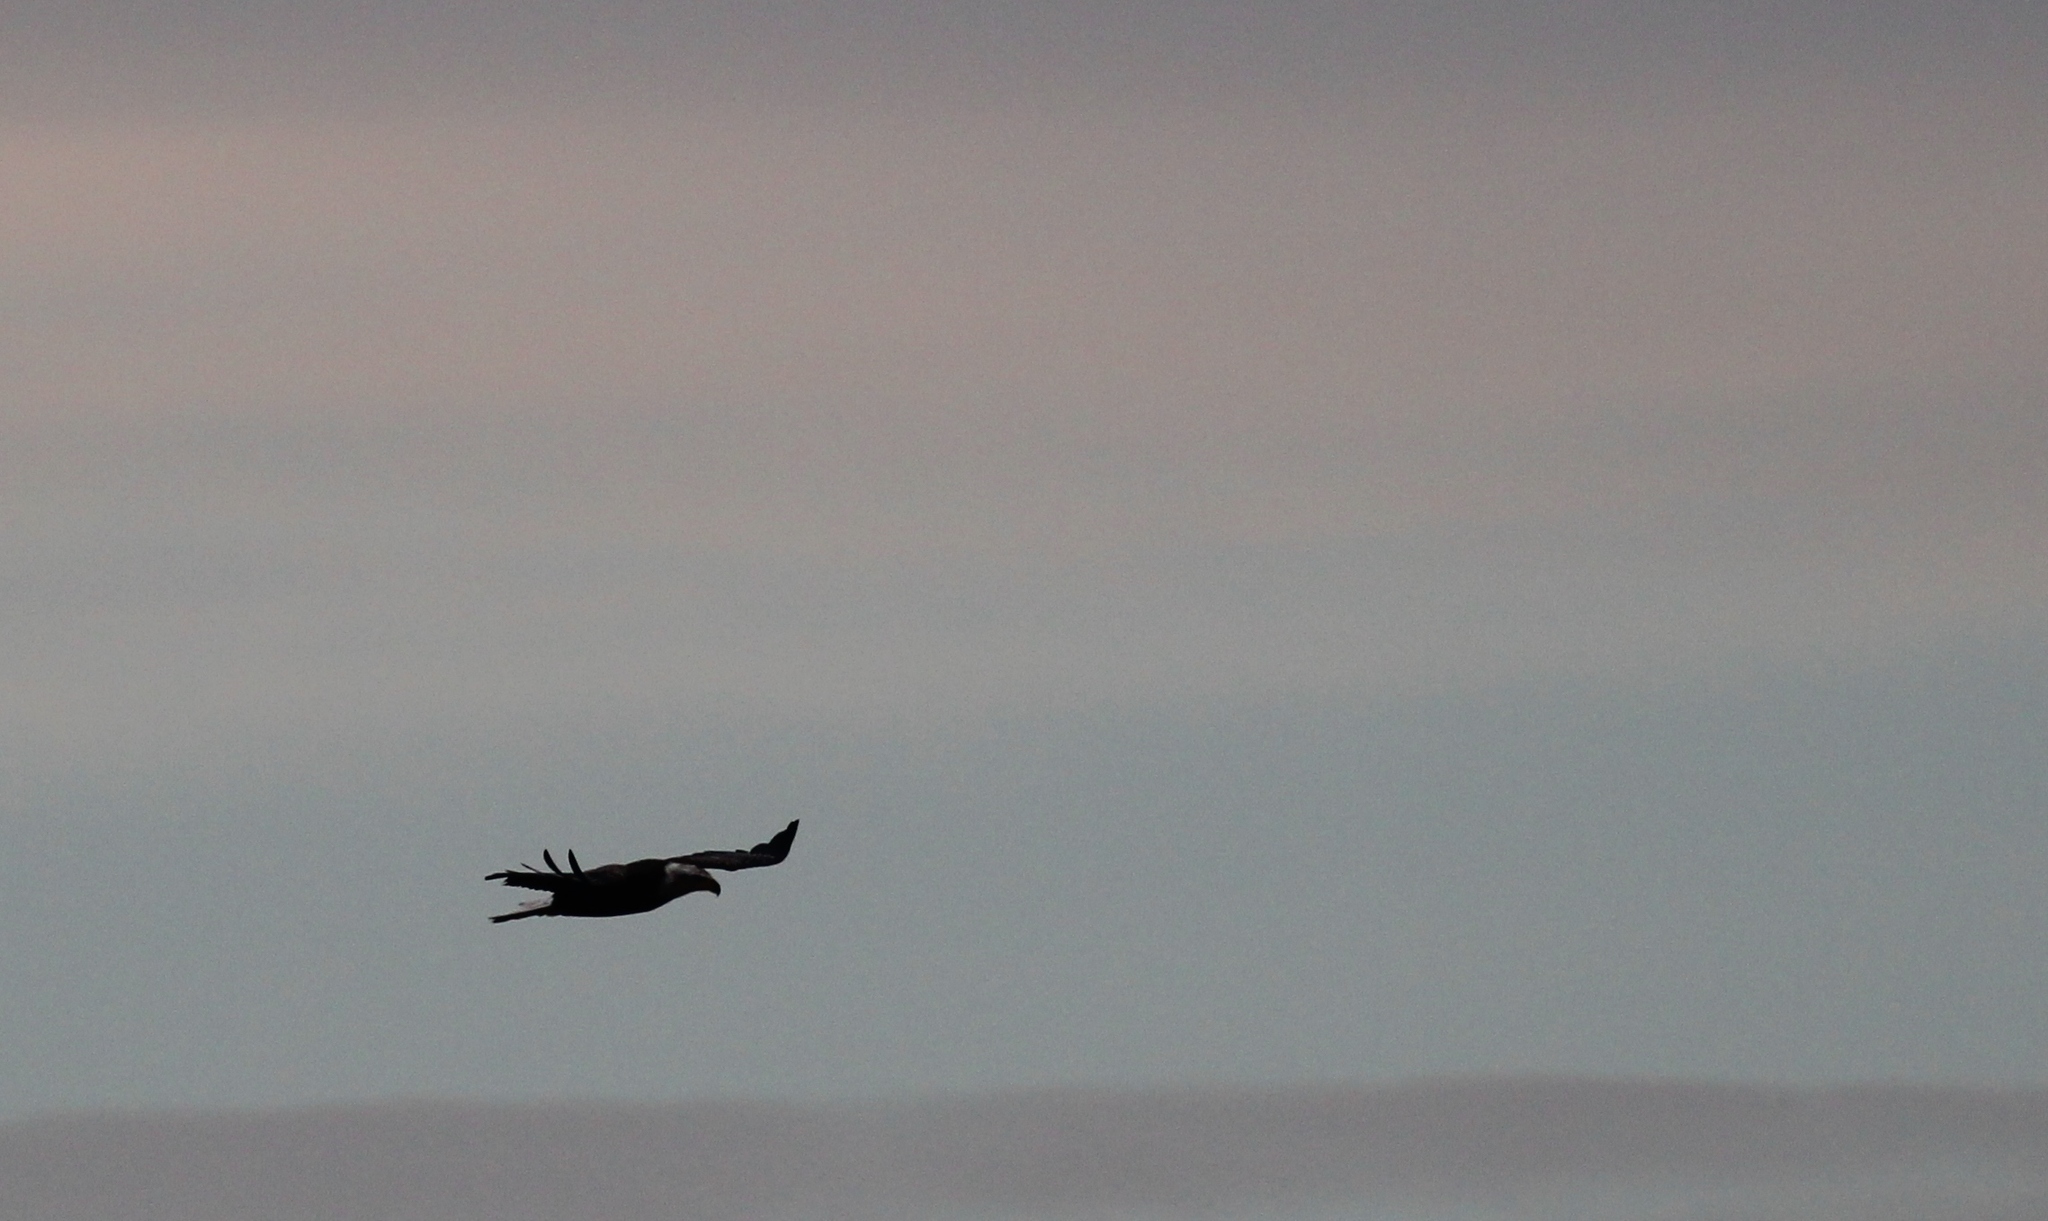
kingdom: Animalia
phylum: Chordata
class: Aves
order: Accipitriformes
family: Accipitridae
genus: Haliaeetus
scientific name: Haliaeetus leucocephalus
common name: Bald eagle
